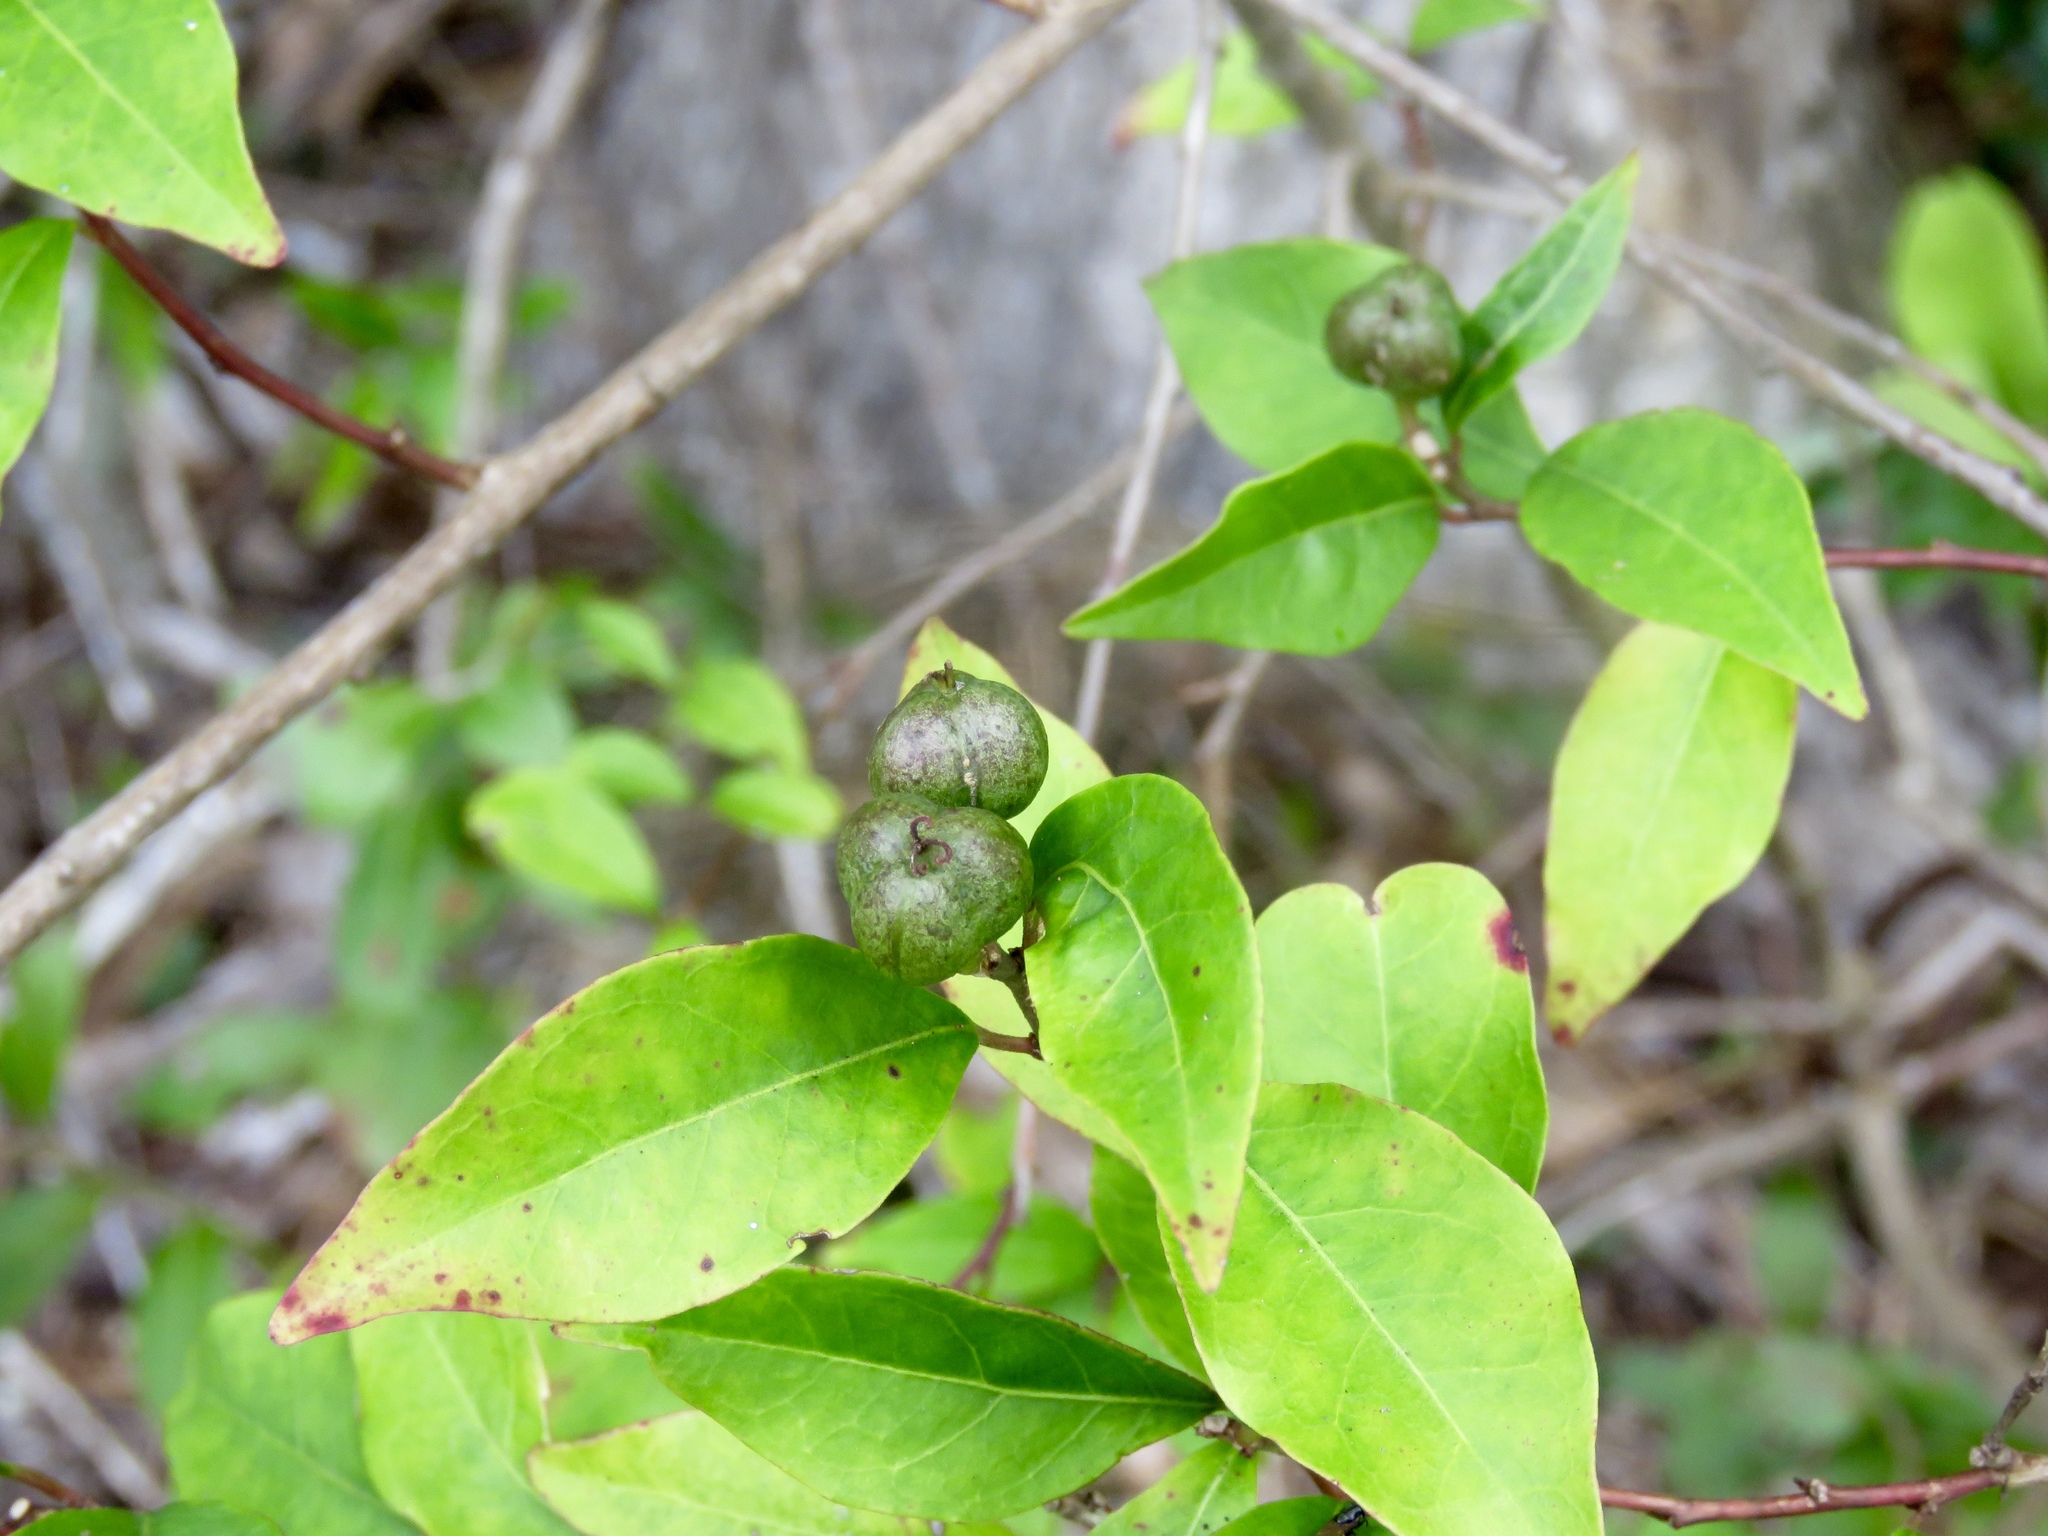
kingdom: Plantae
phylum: Tracheophyta
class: Magnoliopsida
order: Malpighiales
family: Euphorbiaceae
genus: Ditrysinia
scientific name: Ditrysinia fruticosa
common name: Gulf sebastian-bush
